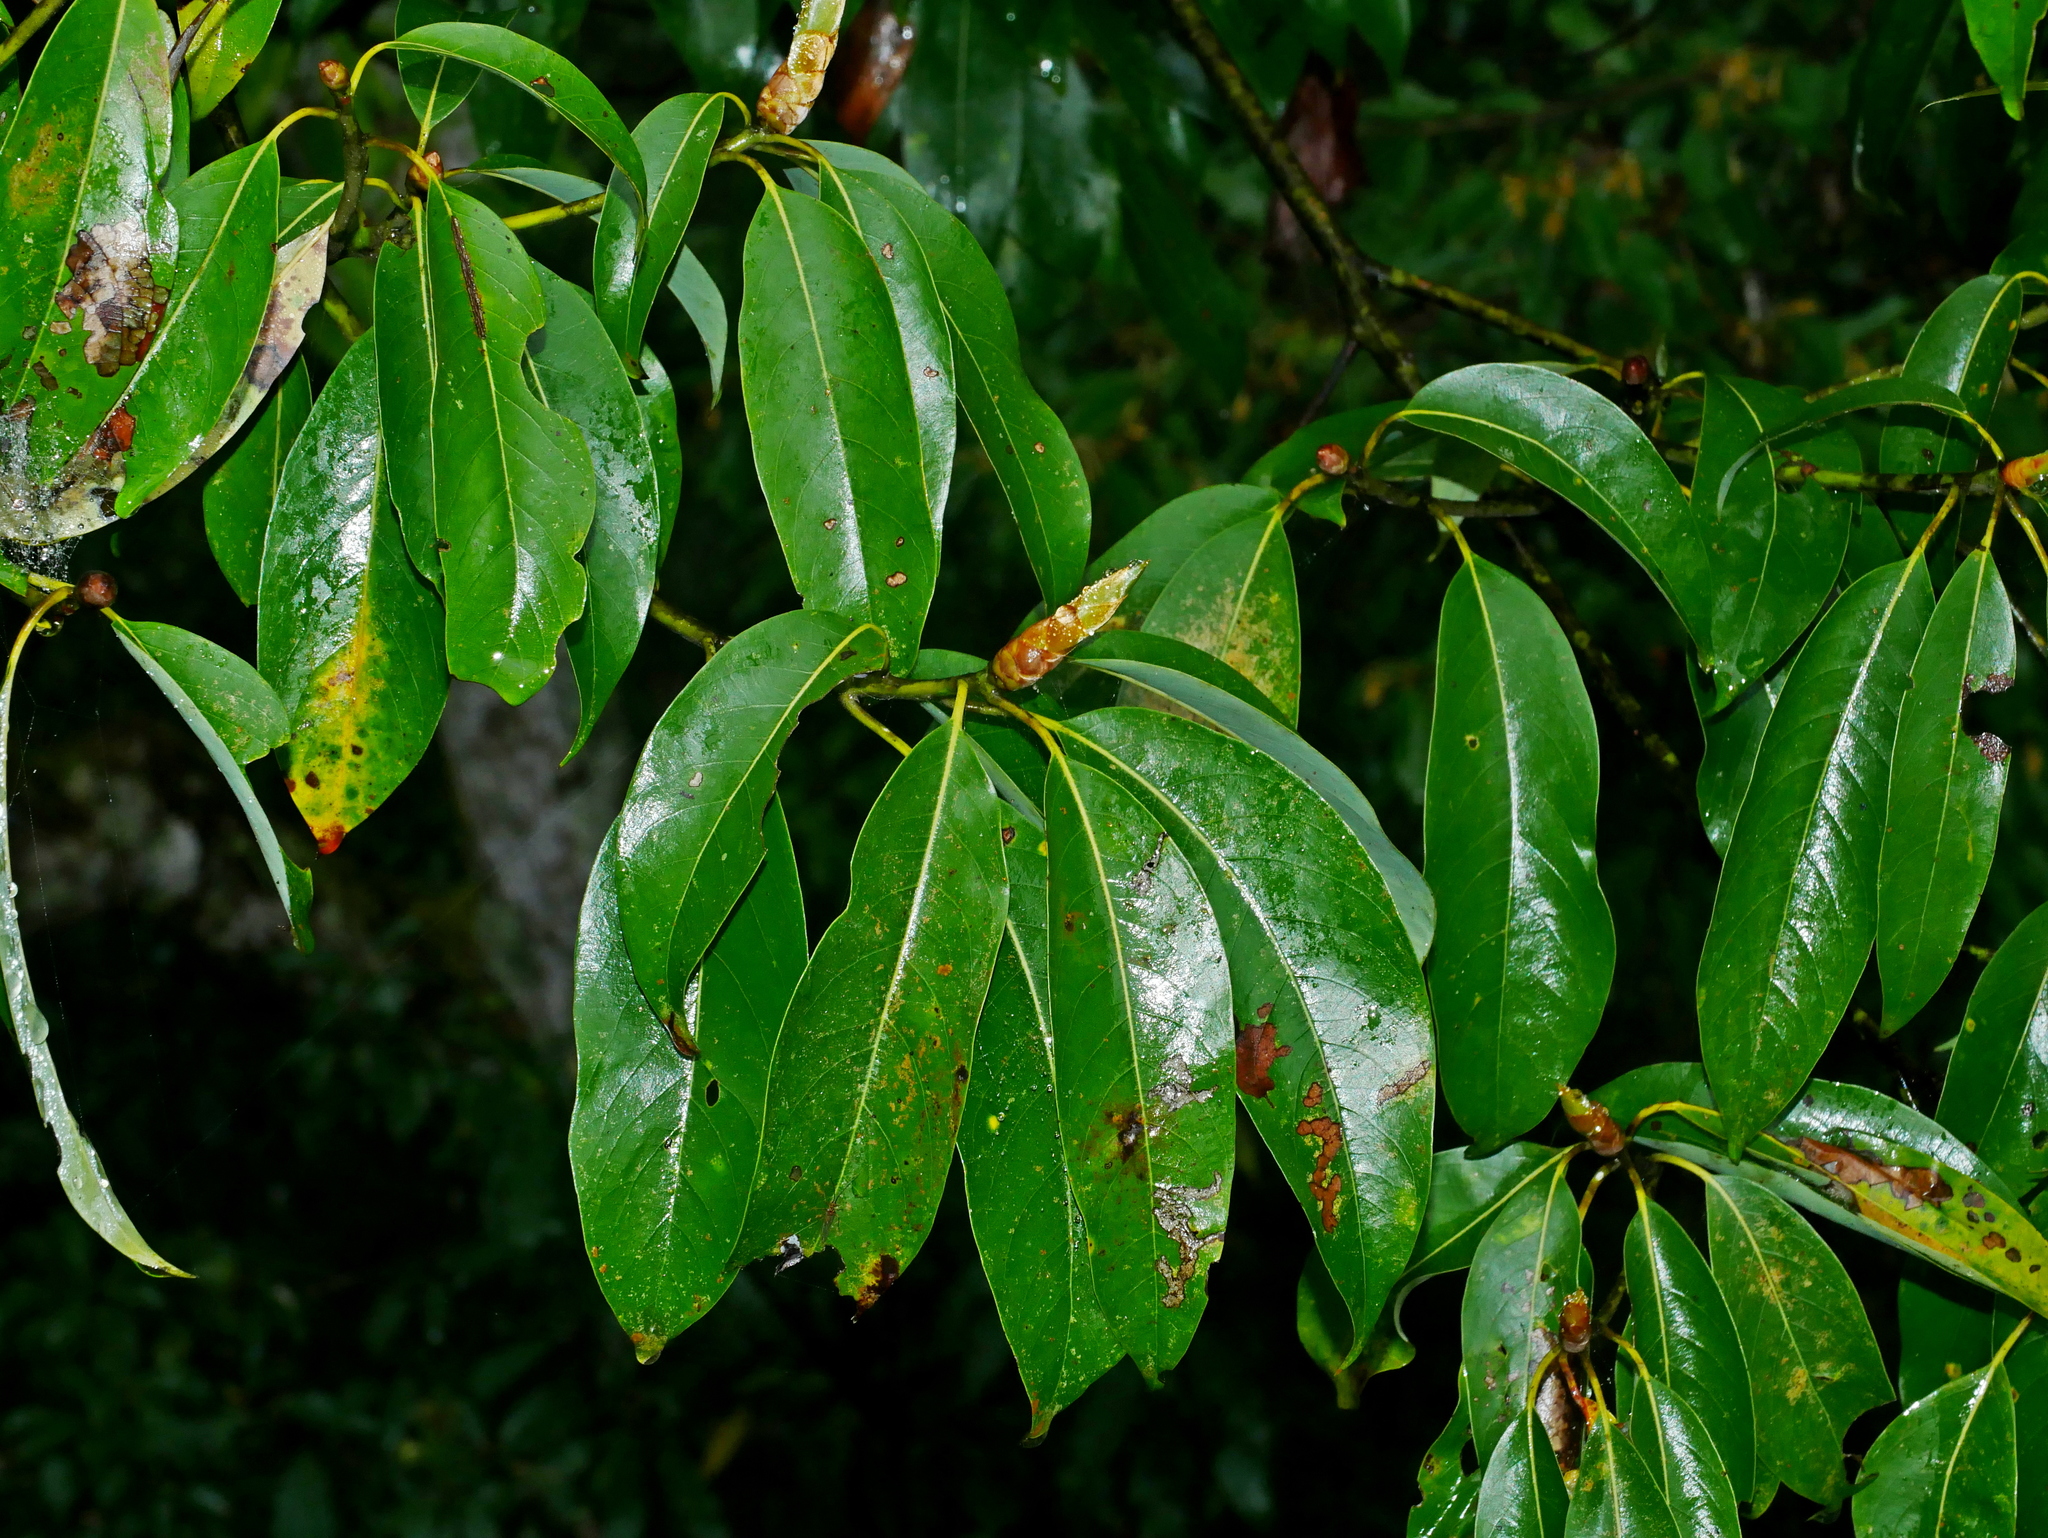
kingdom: Plantae
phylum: Tracheophyta
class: Magnoliopsida
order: Laurales
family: Lauraceae
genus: Machilus
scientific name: Machilus zuihoensis
